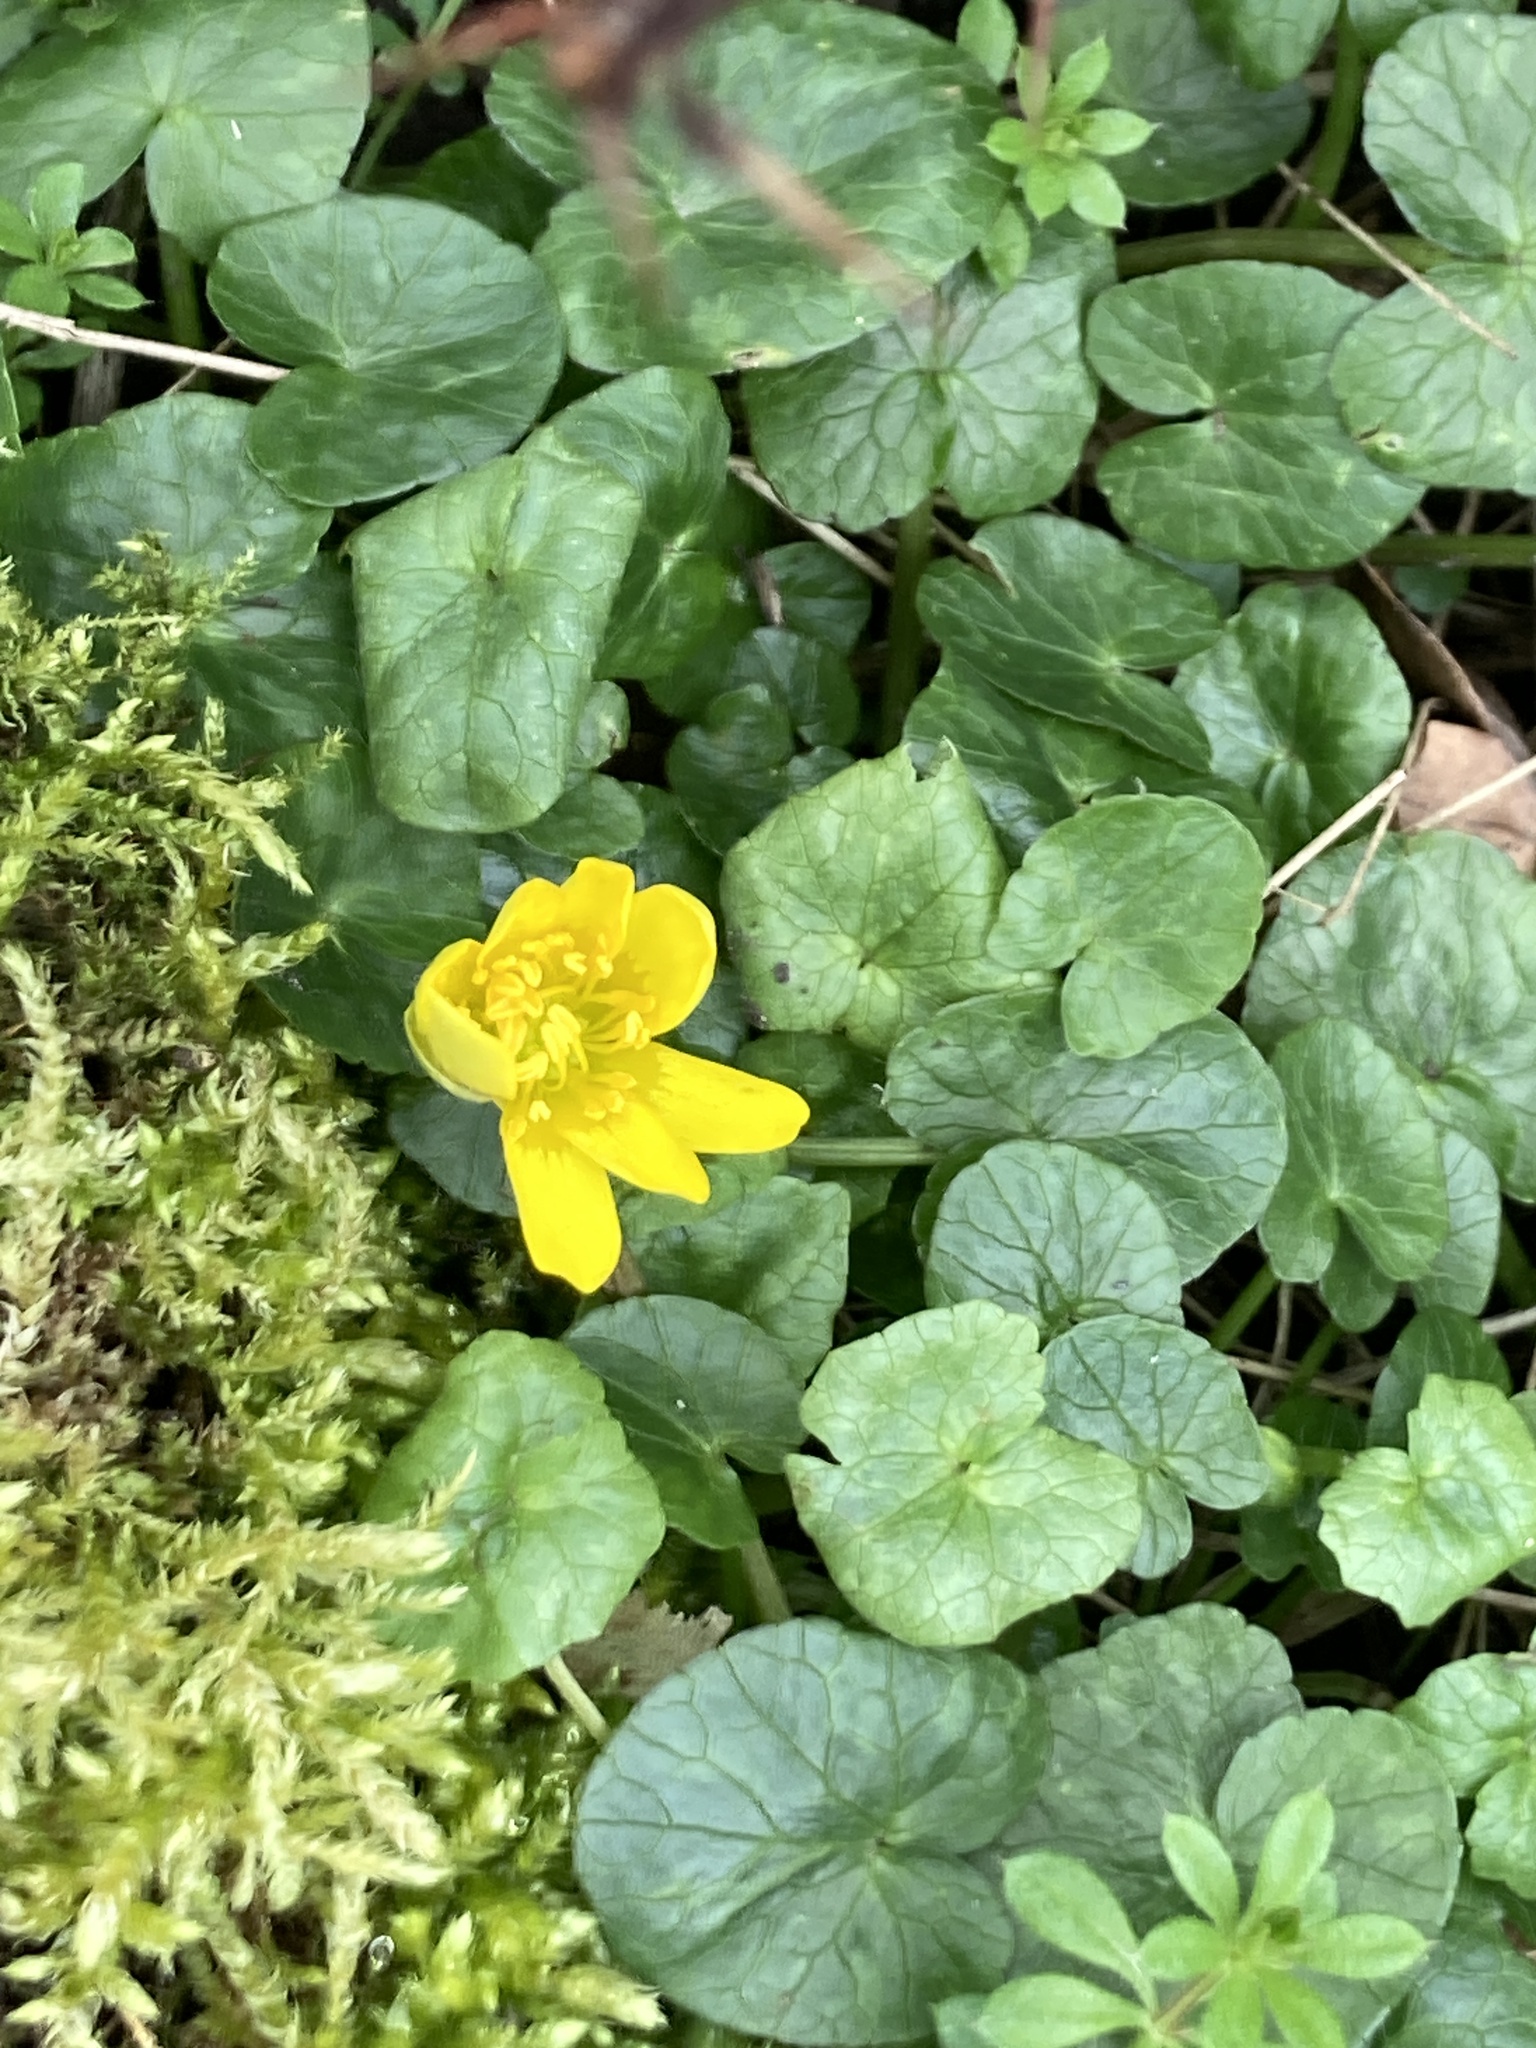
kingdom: Plantae
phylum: Tracheophyta
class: Magnoliopsida
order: Ranunculales
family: Ranunculaceae
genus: Ficaria
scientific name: Ficaria verna
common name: Lesser celandine
